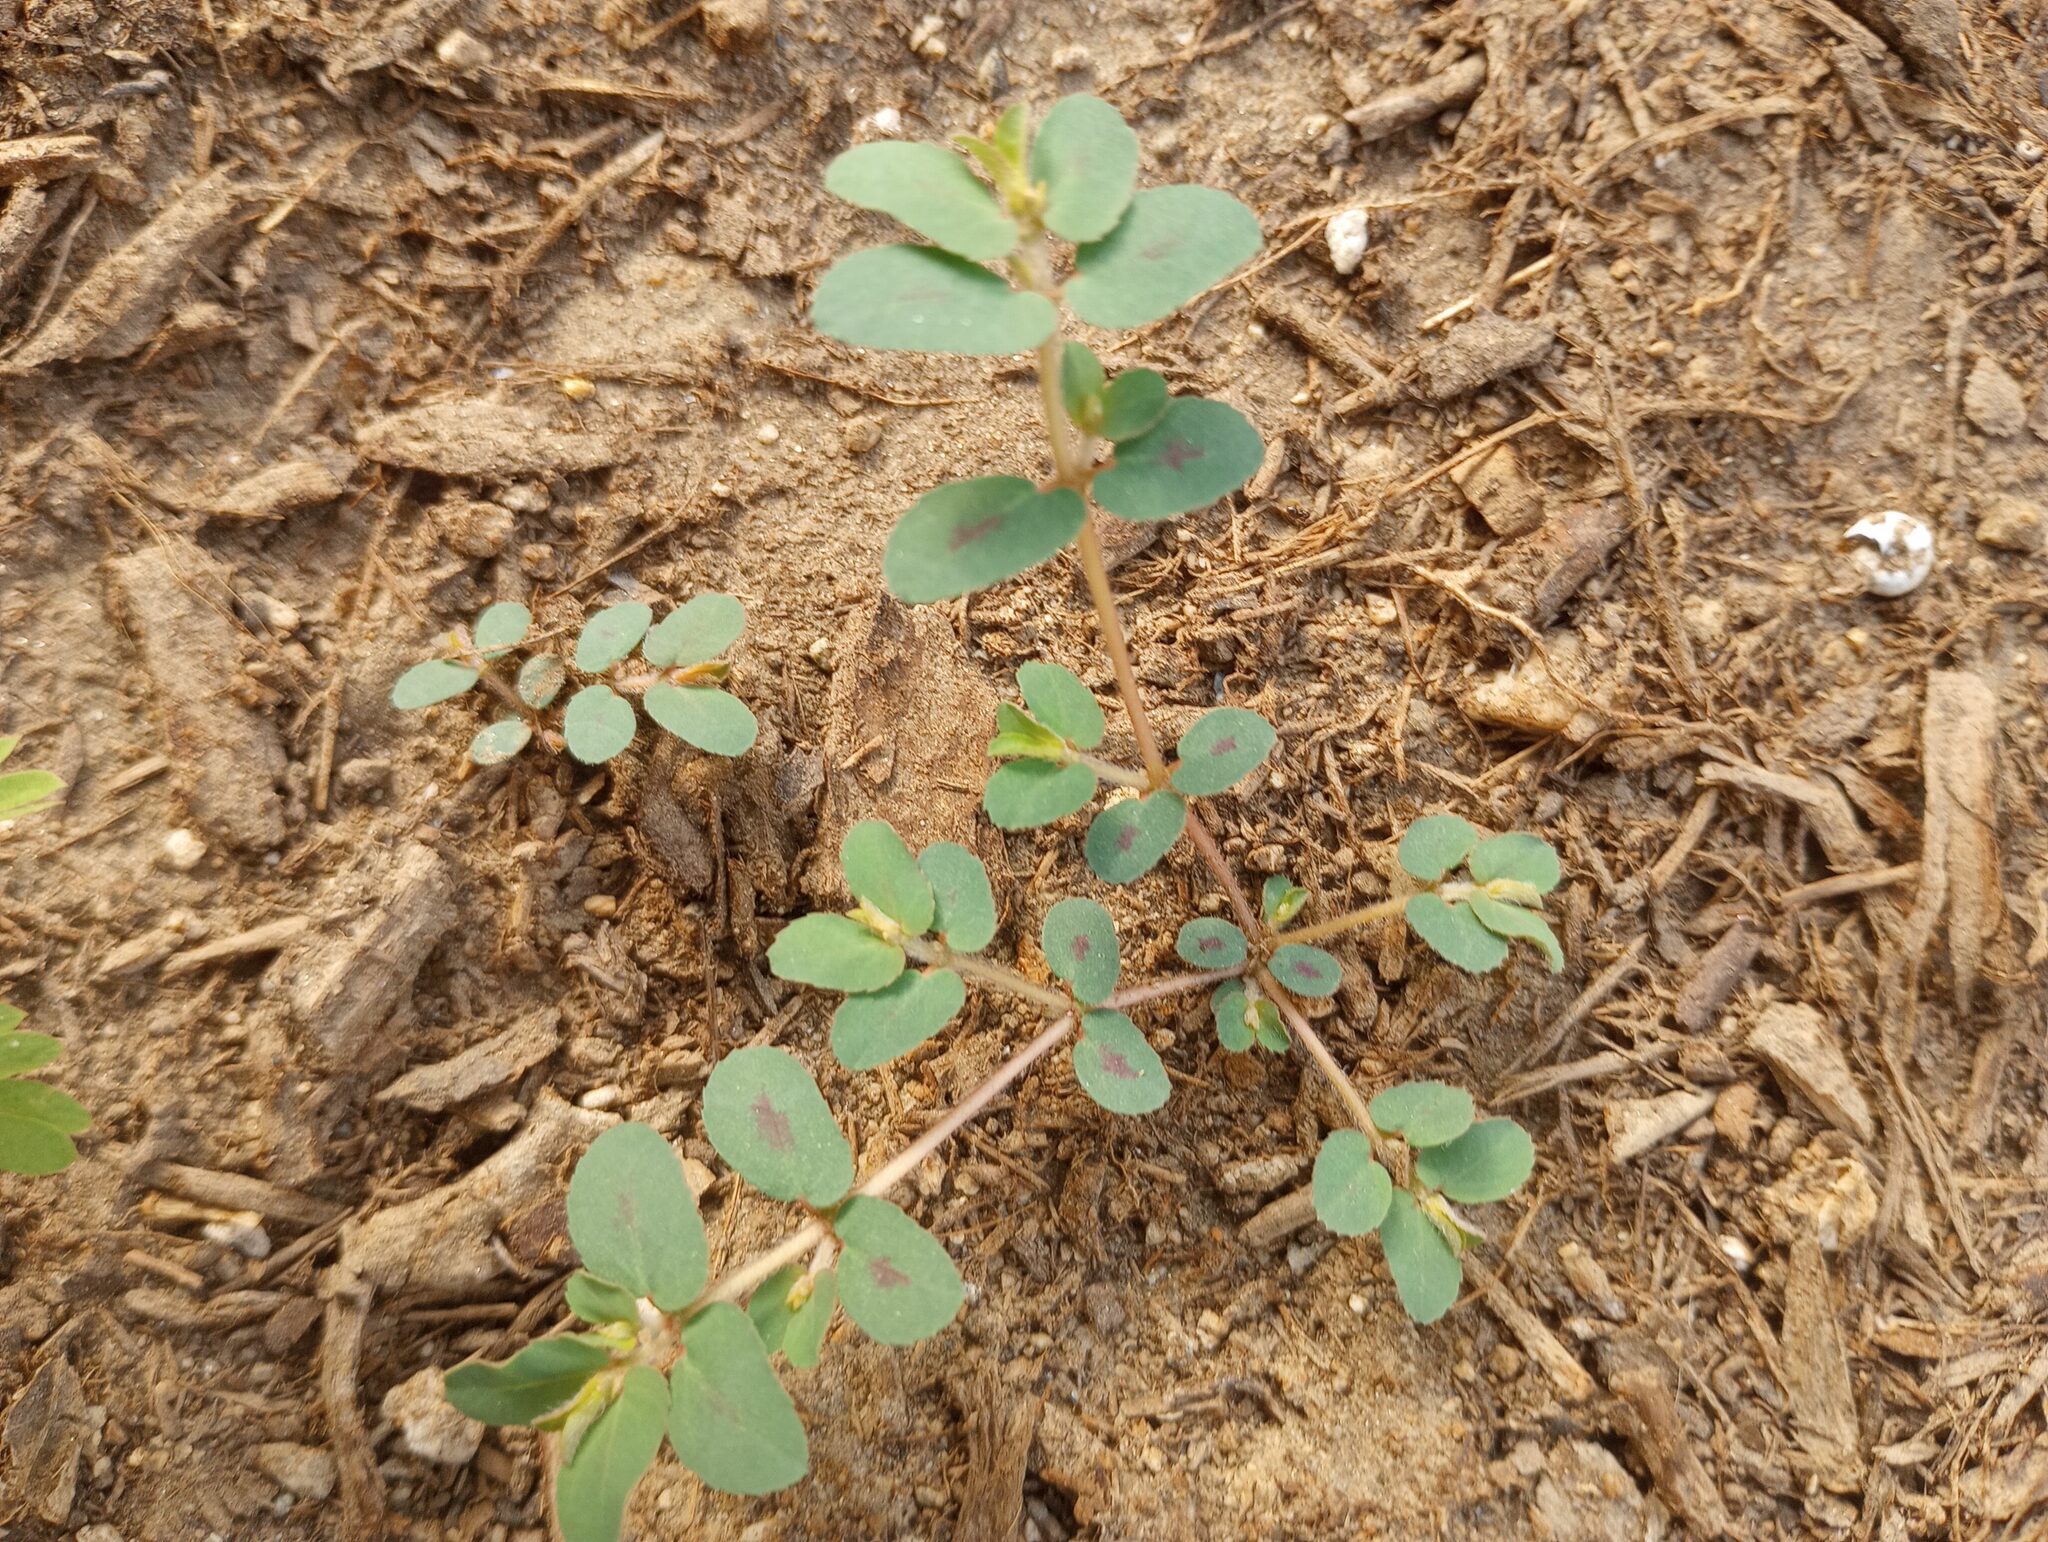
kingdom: Plantae
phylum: Tracheophyta
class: Magnoliopsida
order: Malpighiales
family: Euphorbiaceae
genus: Euphorbia
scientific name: Euphorbia maculata
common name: Spotted spurge
